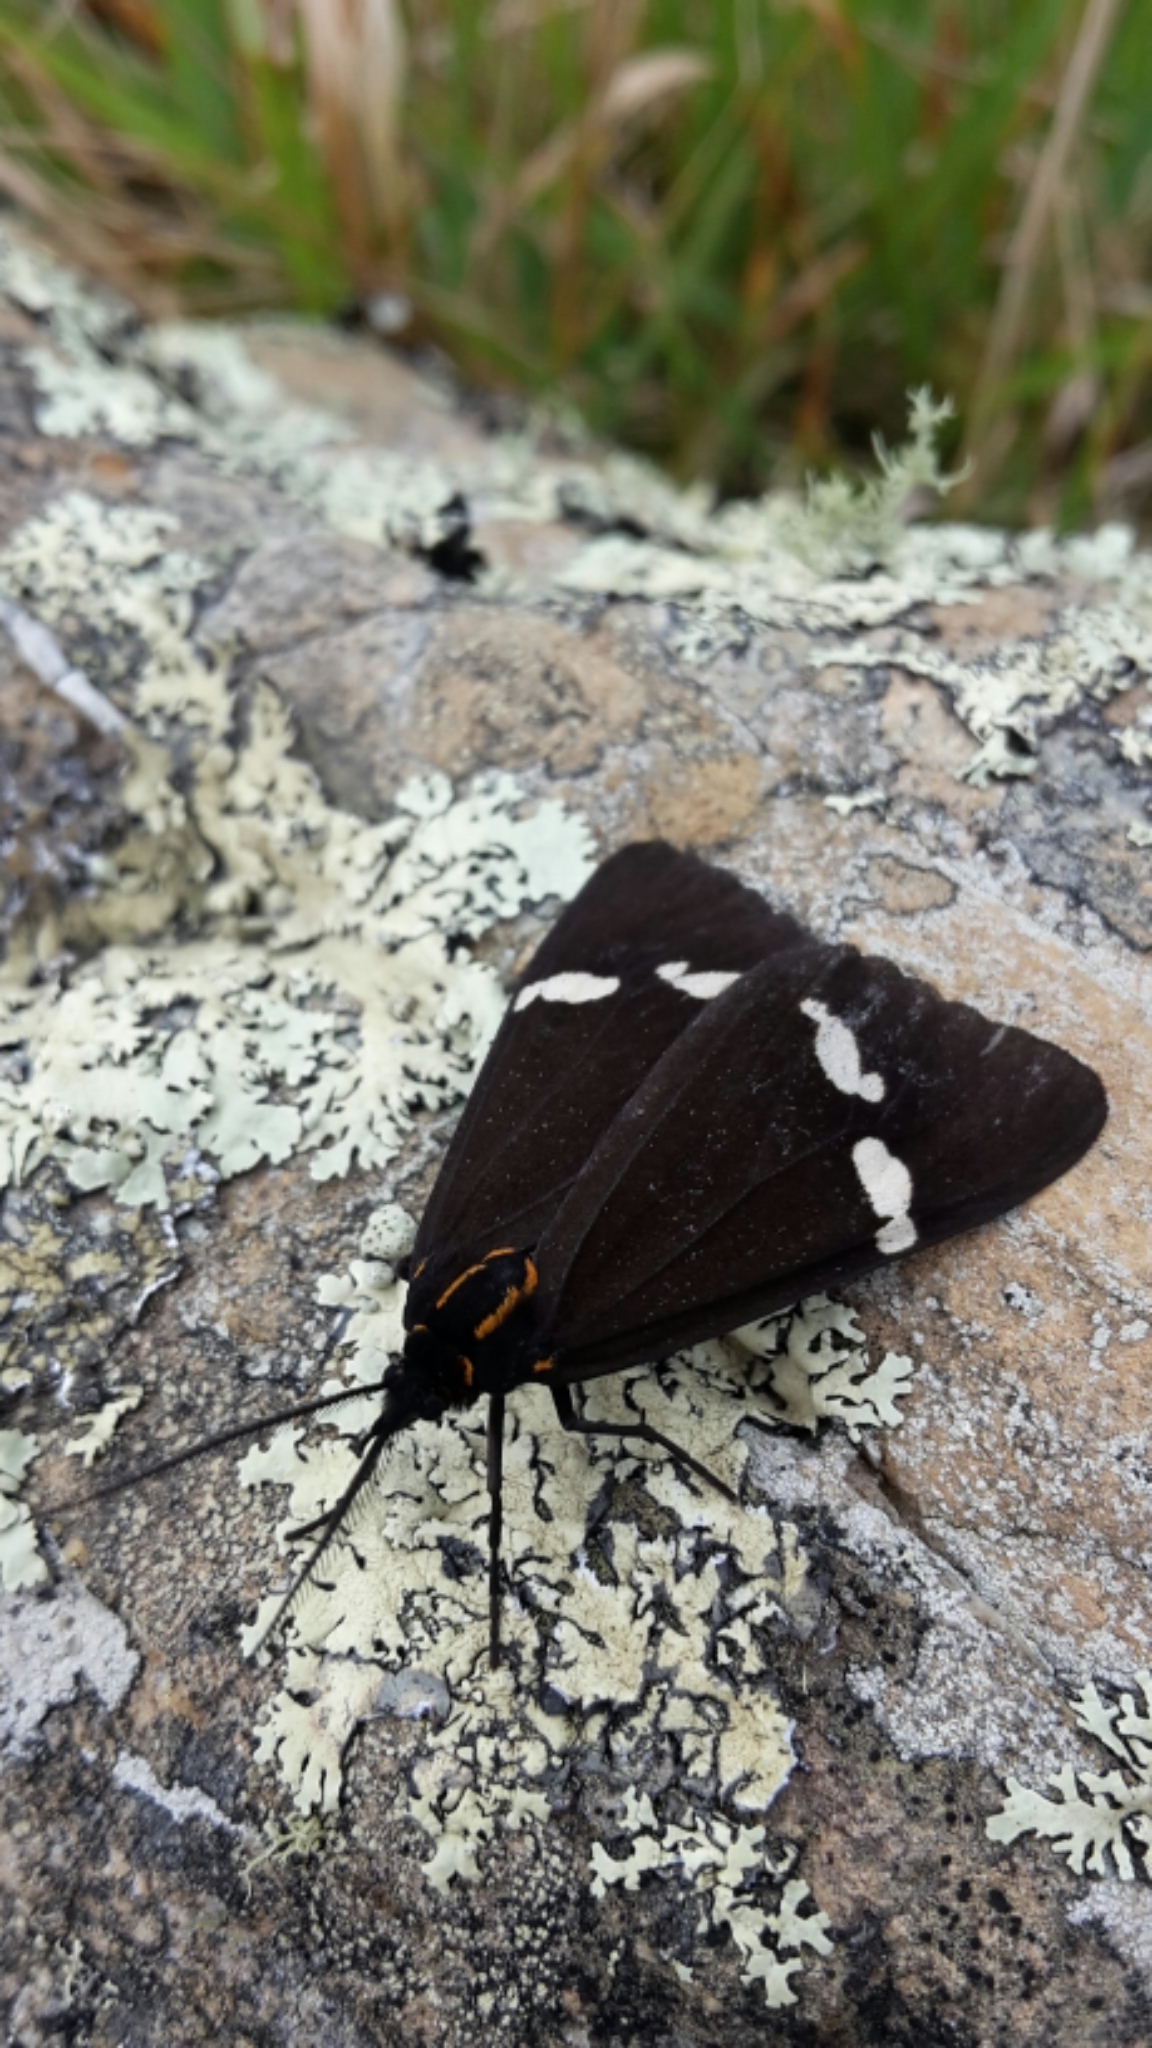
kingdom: Animalia
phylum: Arthropoda
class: Insecta
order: Lepidoptera
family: Erebidae
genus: Nyctemera
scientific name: Nyctemera annulatum
